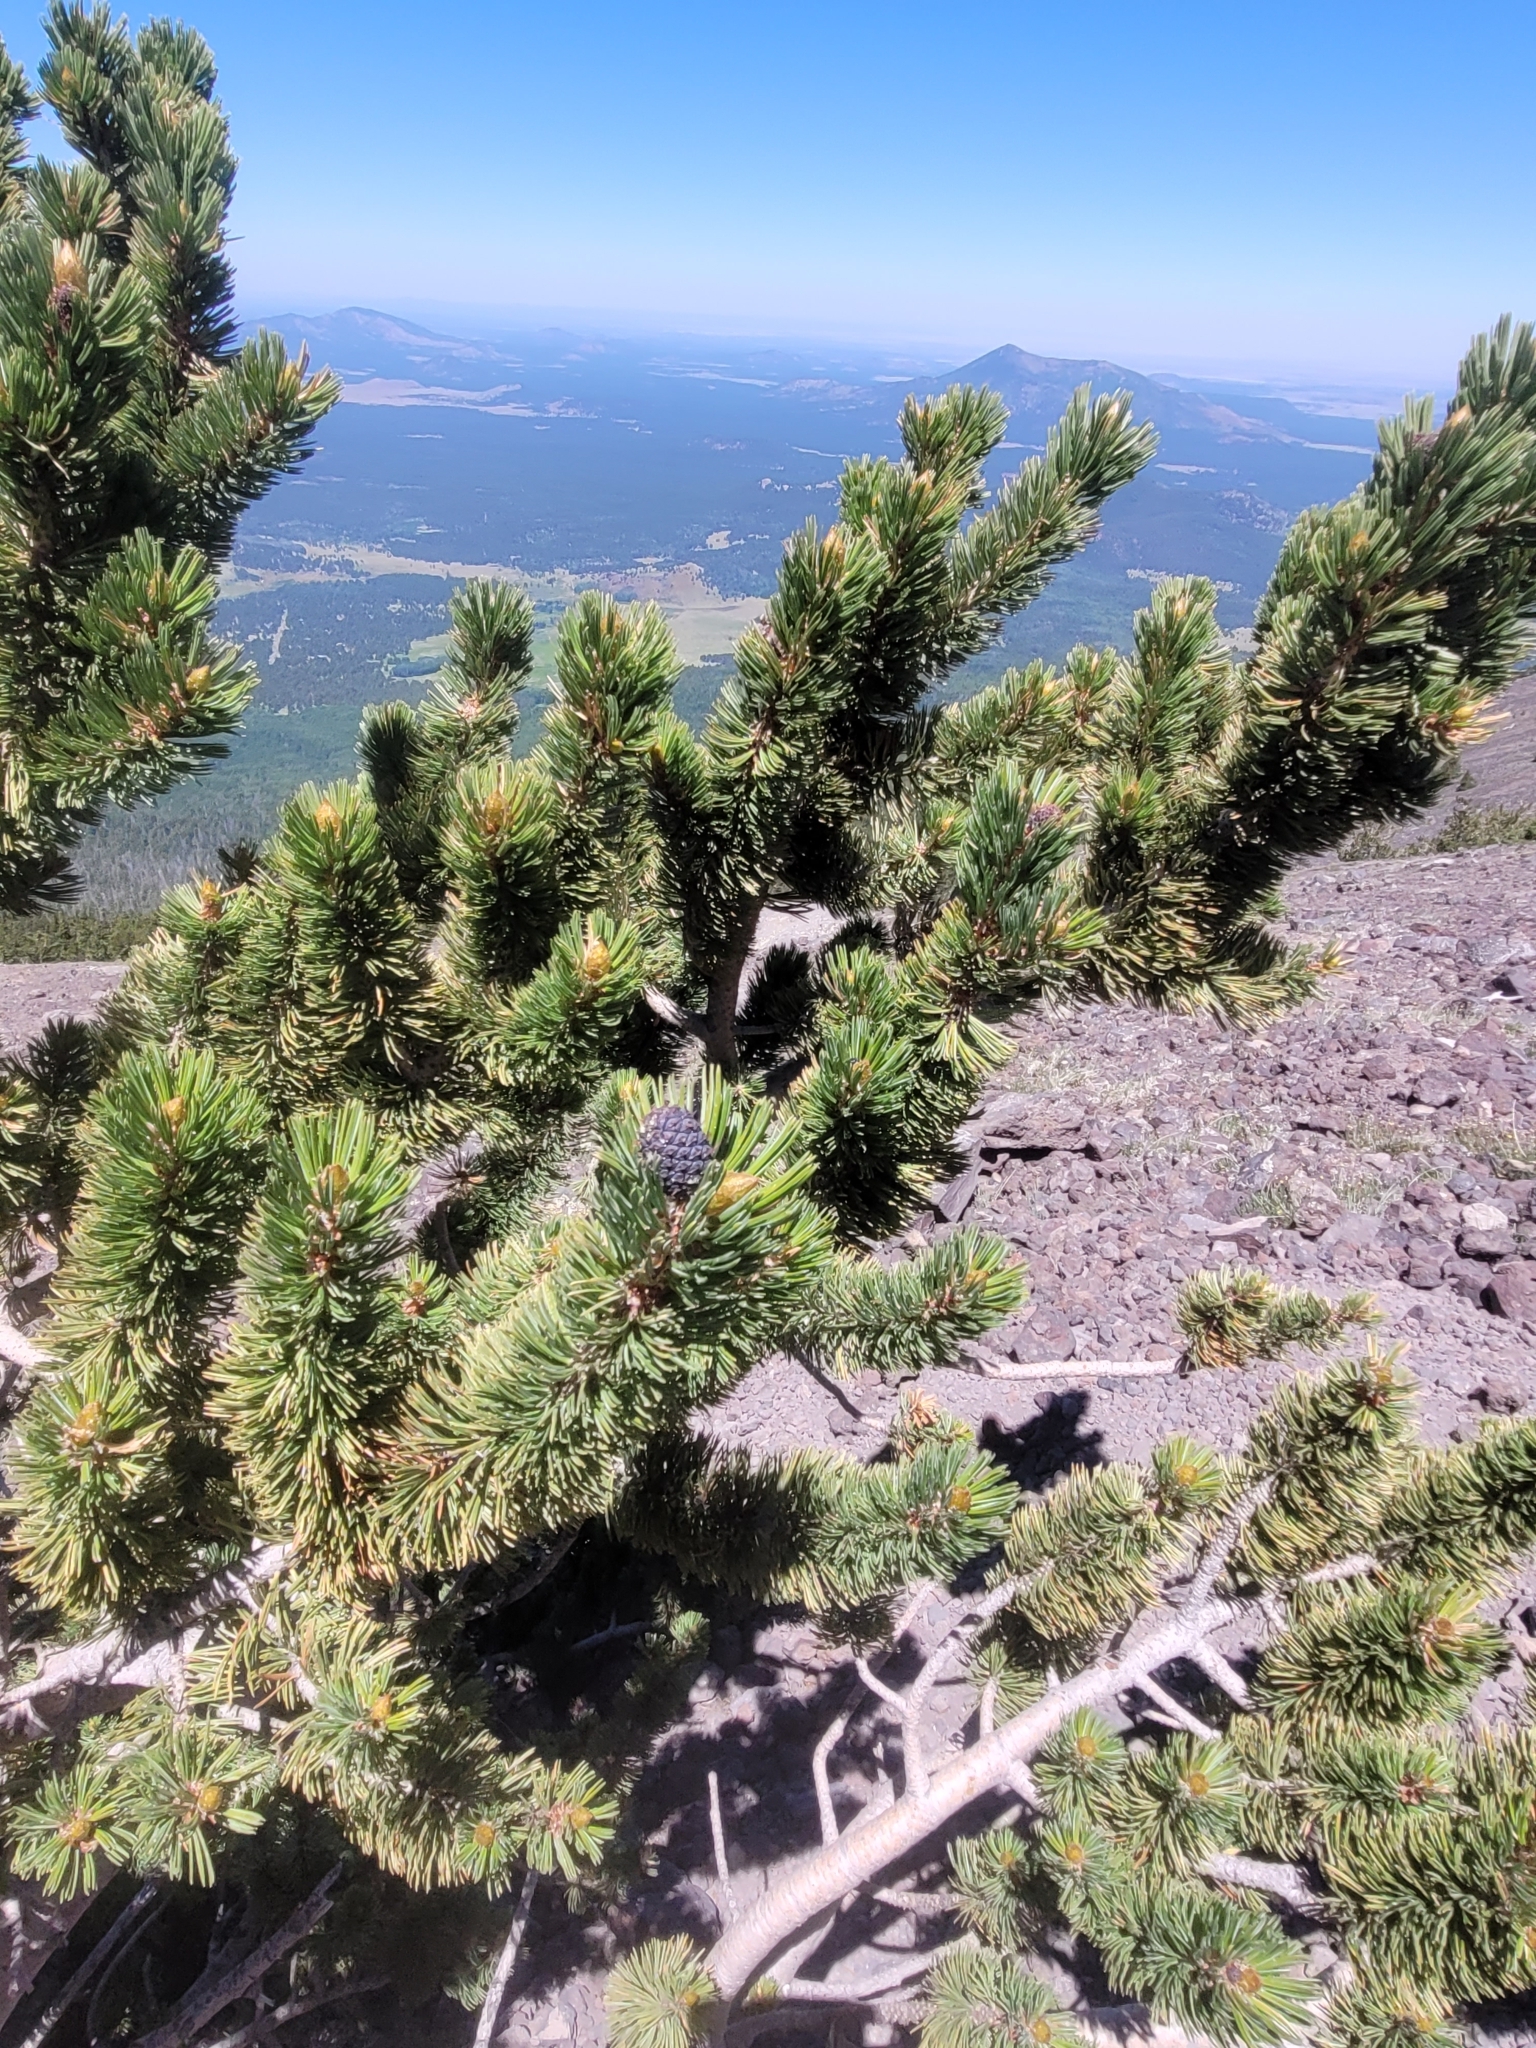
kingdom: Plantae
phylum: Tracheophyta
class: Pinopsida
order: Pinales
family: Pinaceae
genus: Pinus
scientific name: Pinus aristata
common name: Colorado bristlecone pine
